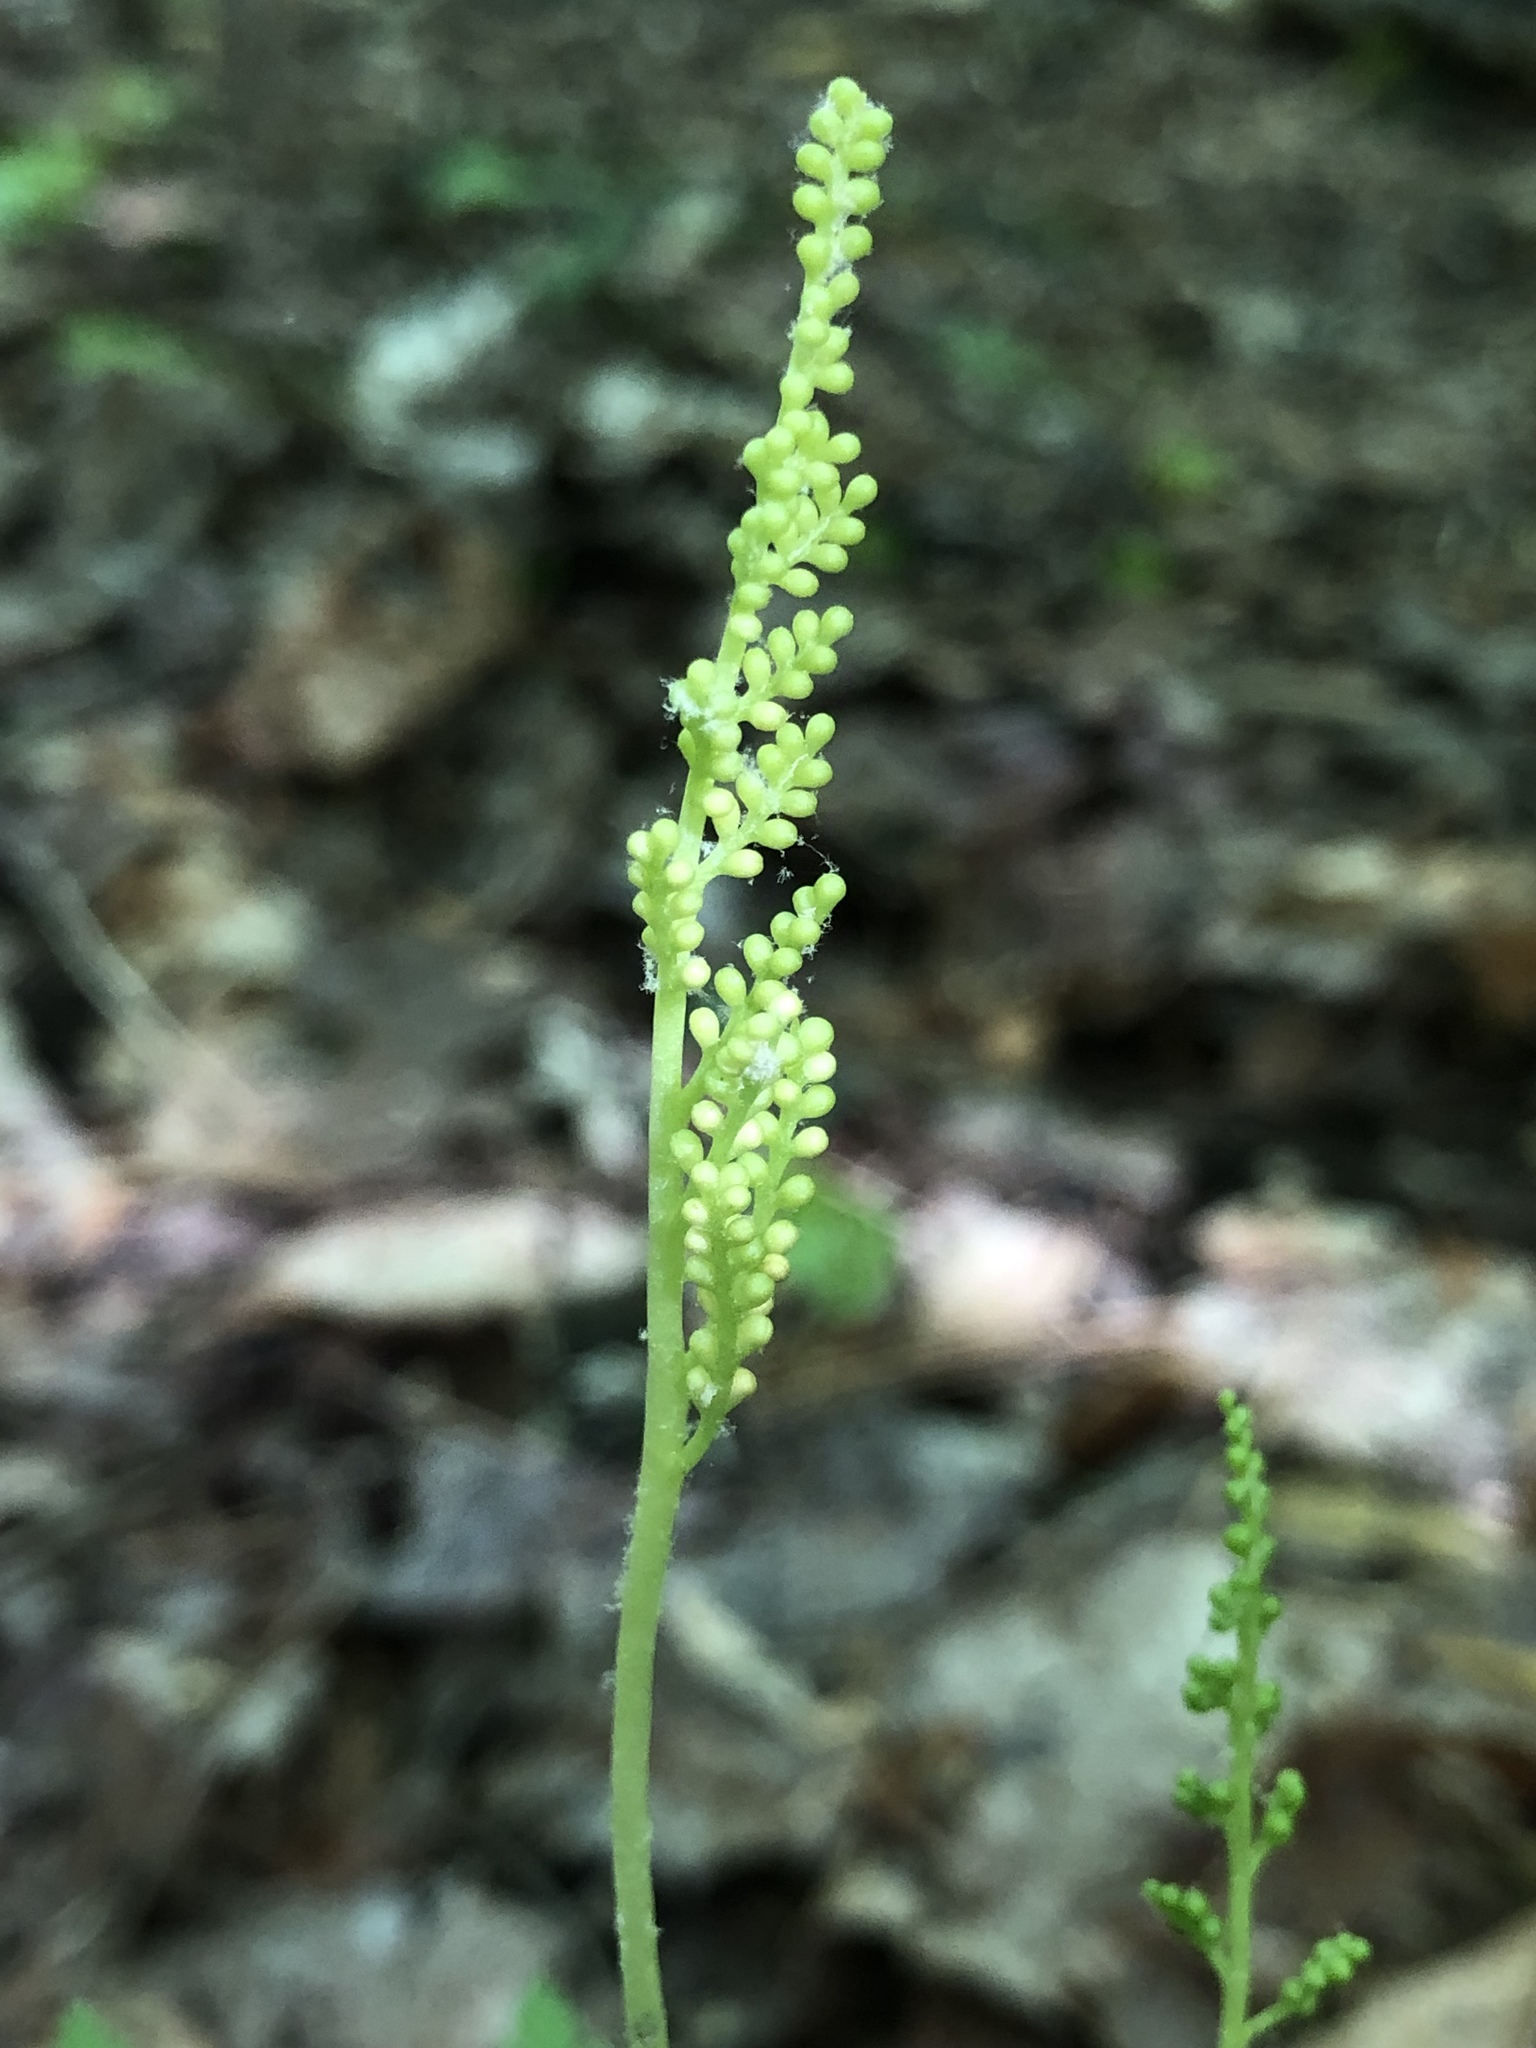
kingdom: Plantae
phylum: Tracheophyta
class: Polypodiopsida
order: Ophioglossales
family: Ophioglossaceae
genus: Botrypus
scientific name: Botrypus virginianus
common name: Common grapefern
